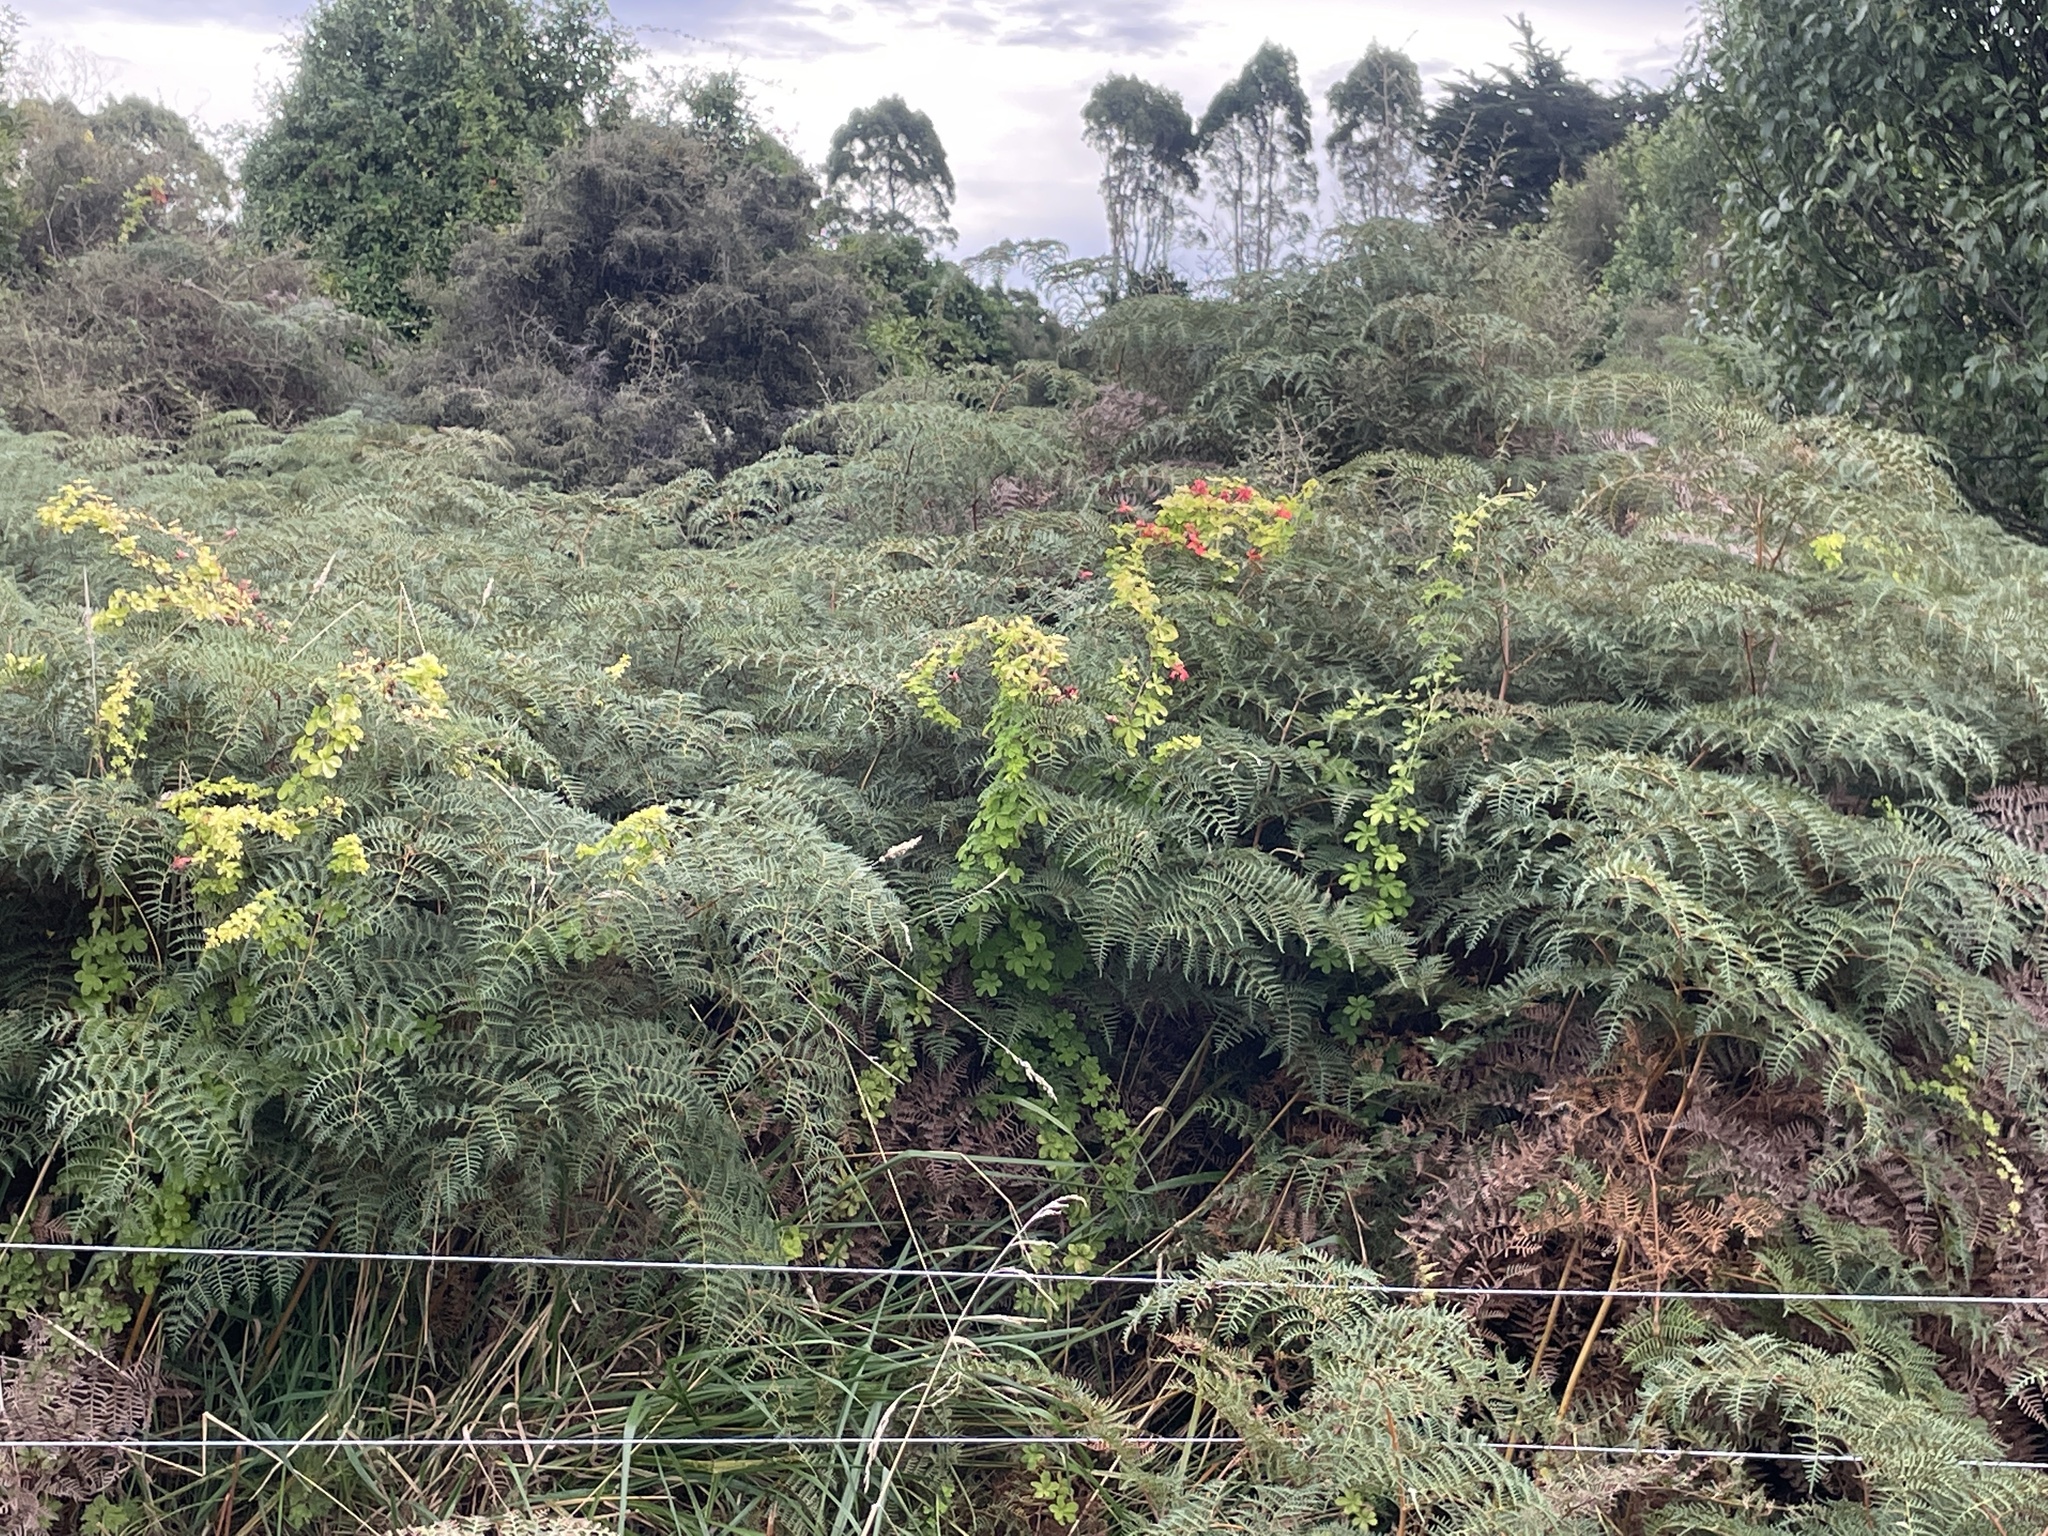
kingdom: Plantae
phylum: Tracheophyta
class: Magnoliopsida
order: Brassicales
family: Tropaeolaceae
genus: Tropaeolum
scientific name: Tropaeolum speciosum
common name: Flame nasturtium
